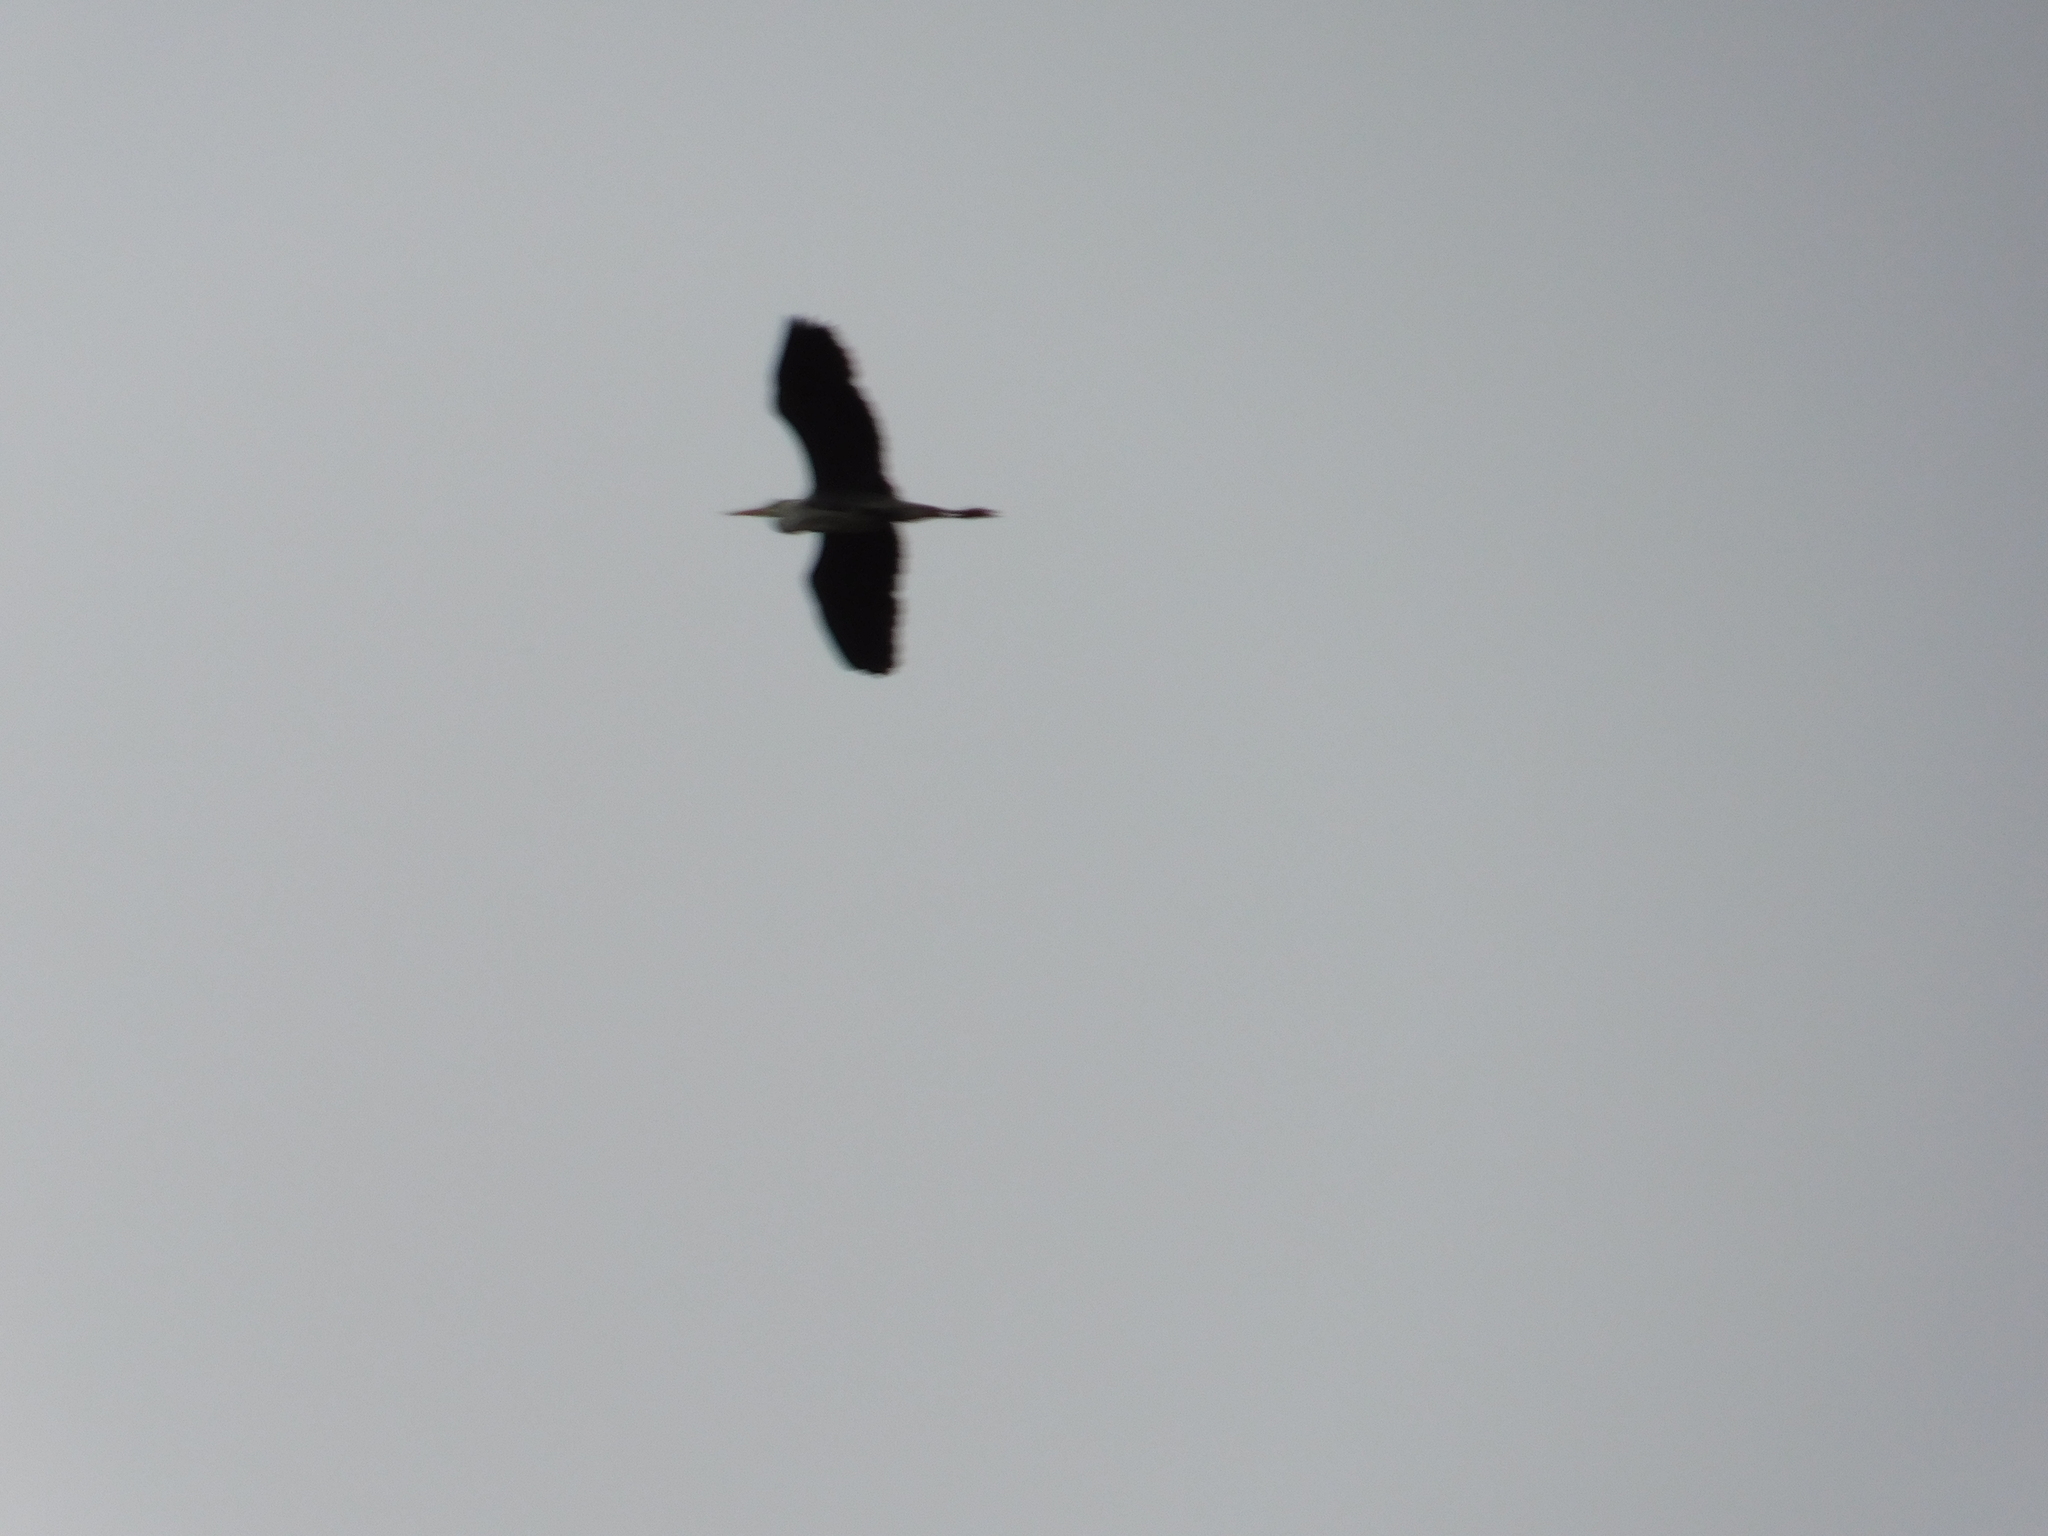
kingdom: Animalia
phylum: Chordata
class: Aves
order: Pelecaniformes
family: Ardeidae
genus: Ardea
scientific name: Ardea cinerea
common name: Grey heron
